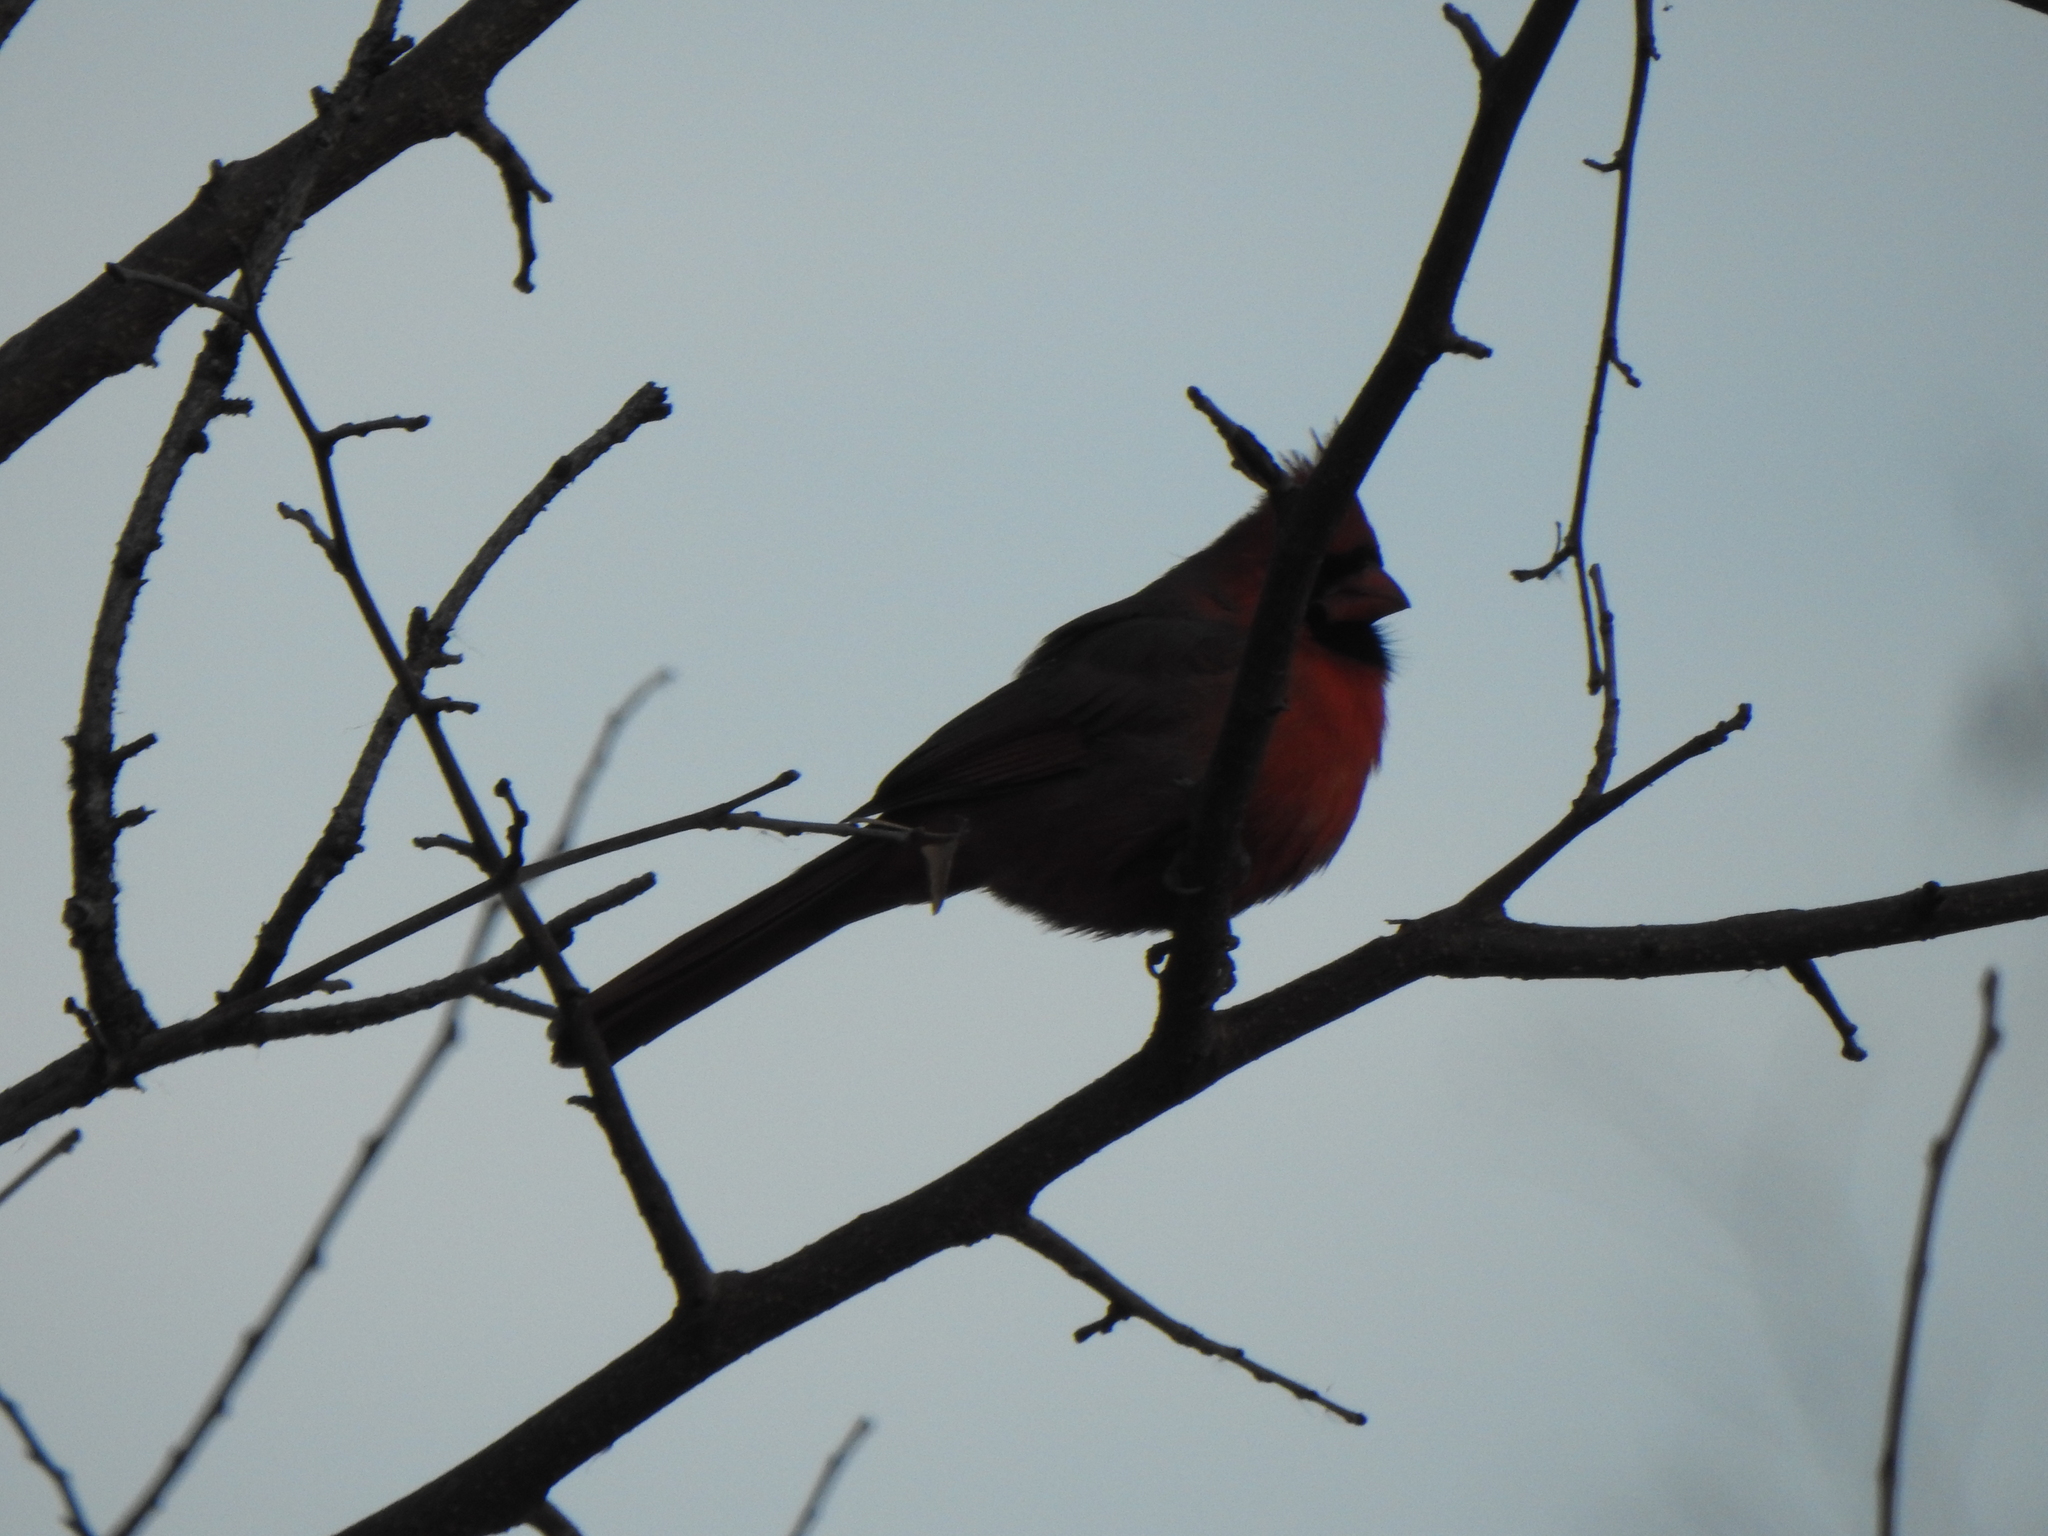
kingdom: Animalia
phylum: Chordata
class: Aves
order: Passeriformes
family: Cardinalidae
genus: Cardinalis
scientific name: Cardinalis cardinalis
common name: Northern cardinal
